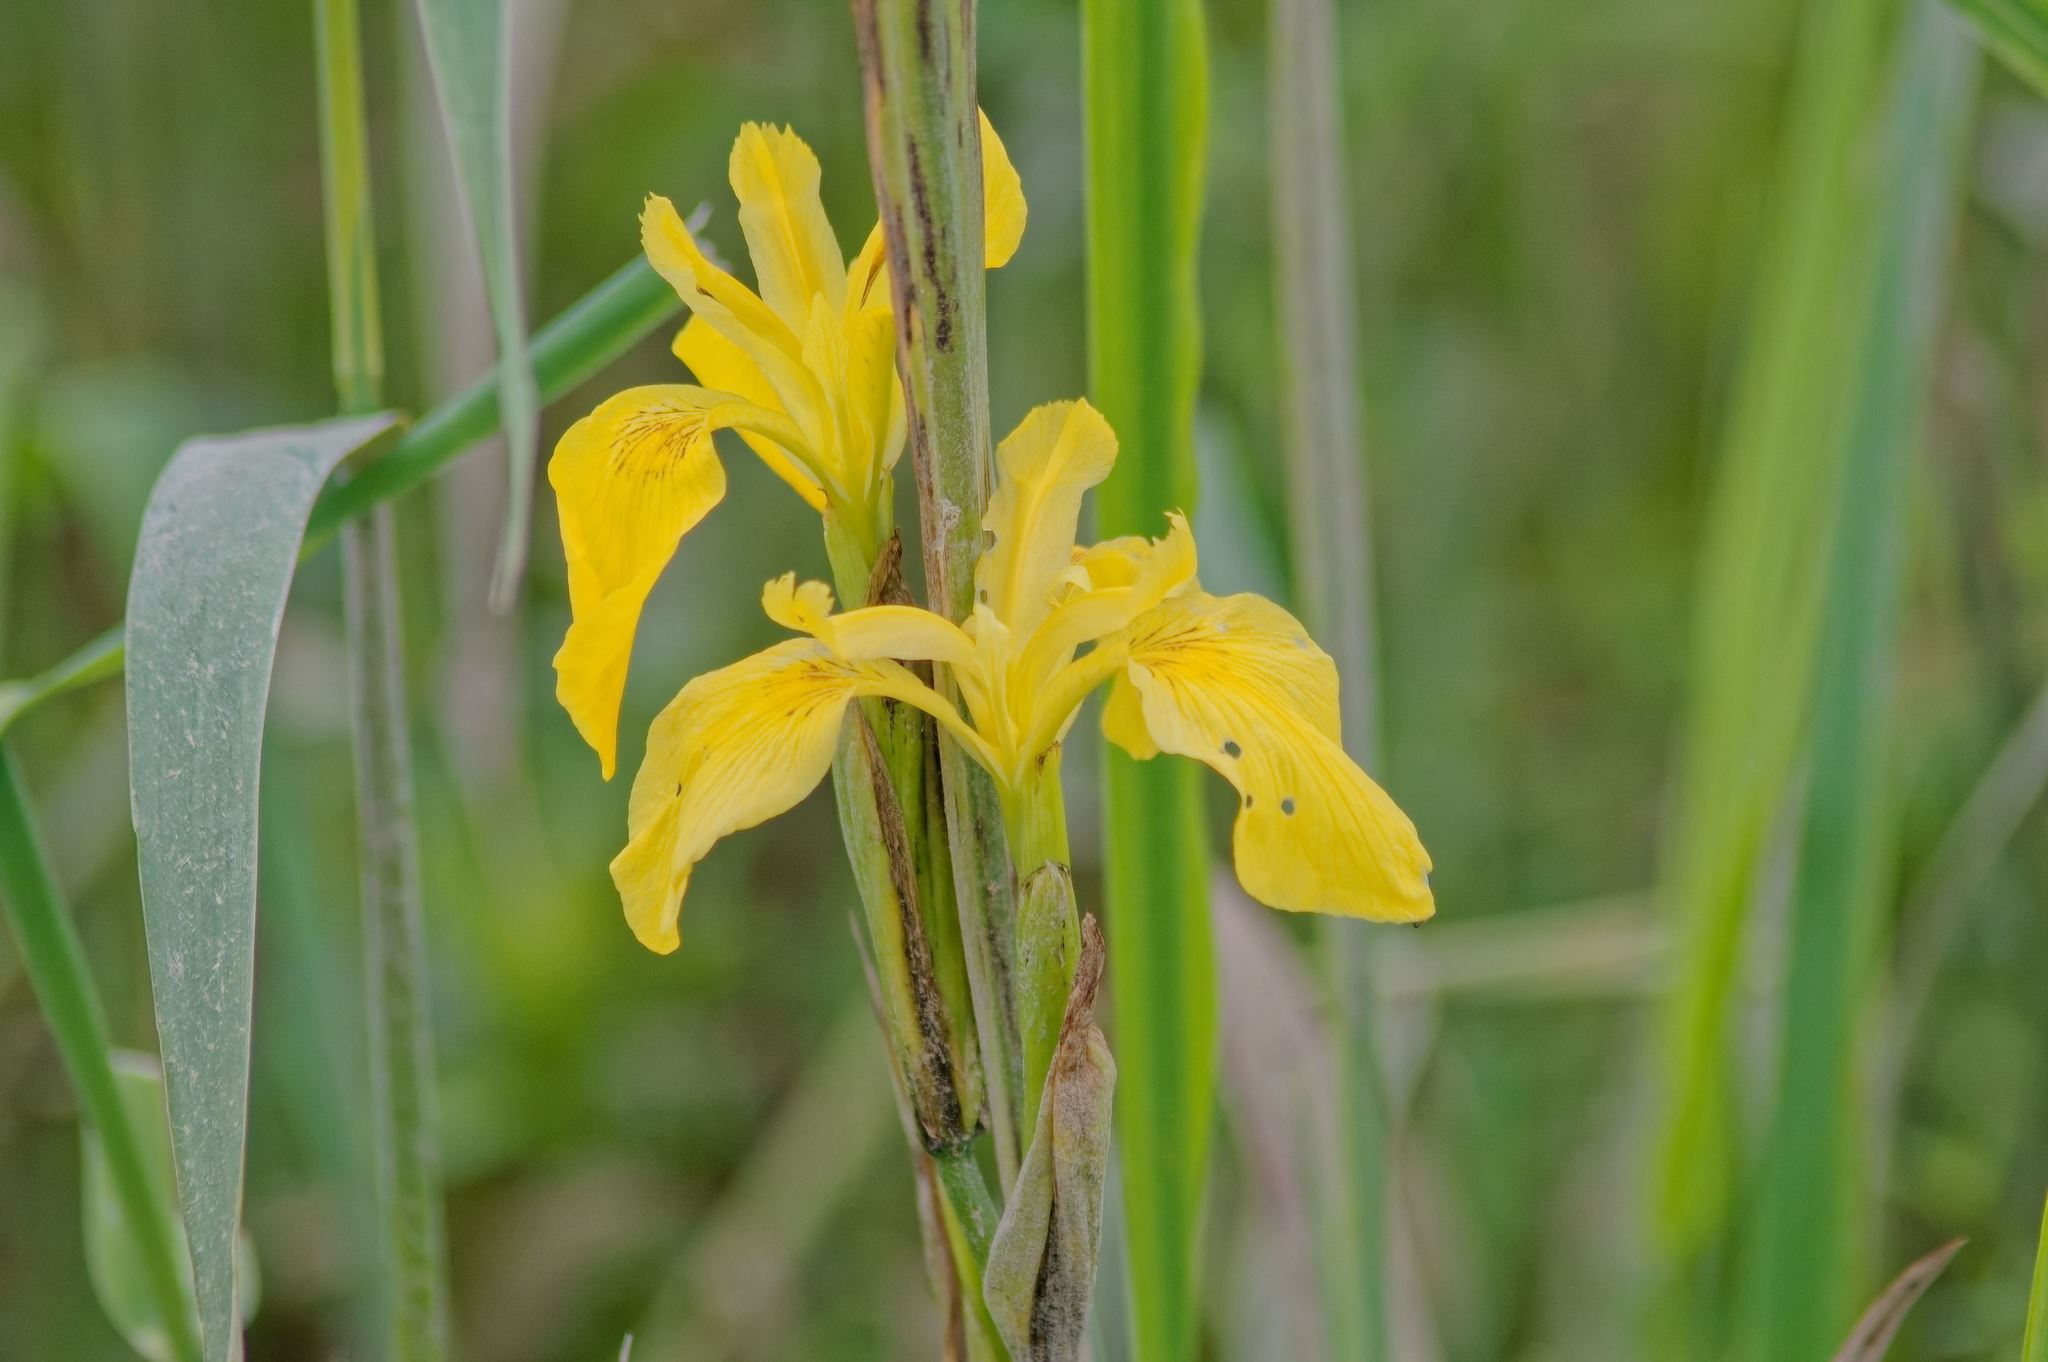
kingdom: Plantae
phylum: Tracheophyta
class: Liliopsida
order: Asparagales
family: Iridaceae
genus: Iris
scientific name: Iris pseudacorus
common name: Yellow flag
